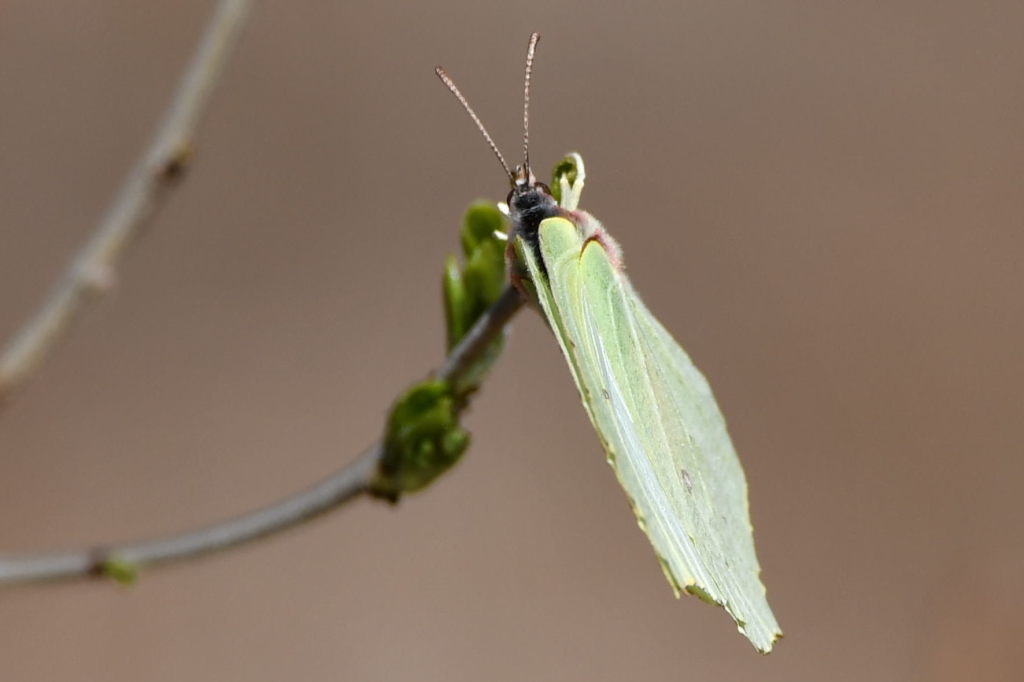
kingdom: Animalia
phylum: Arthropoda
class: Insecta
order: Lepidoptera
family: Pieridae
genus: Gonepteryx
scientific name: Gonepteryx rhamni
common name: Brimstone
